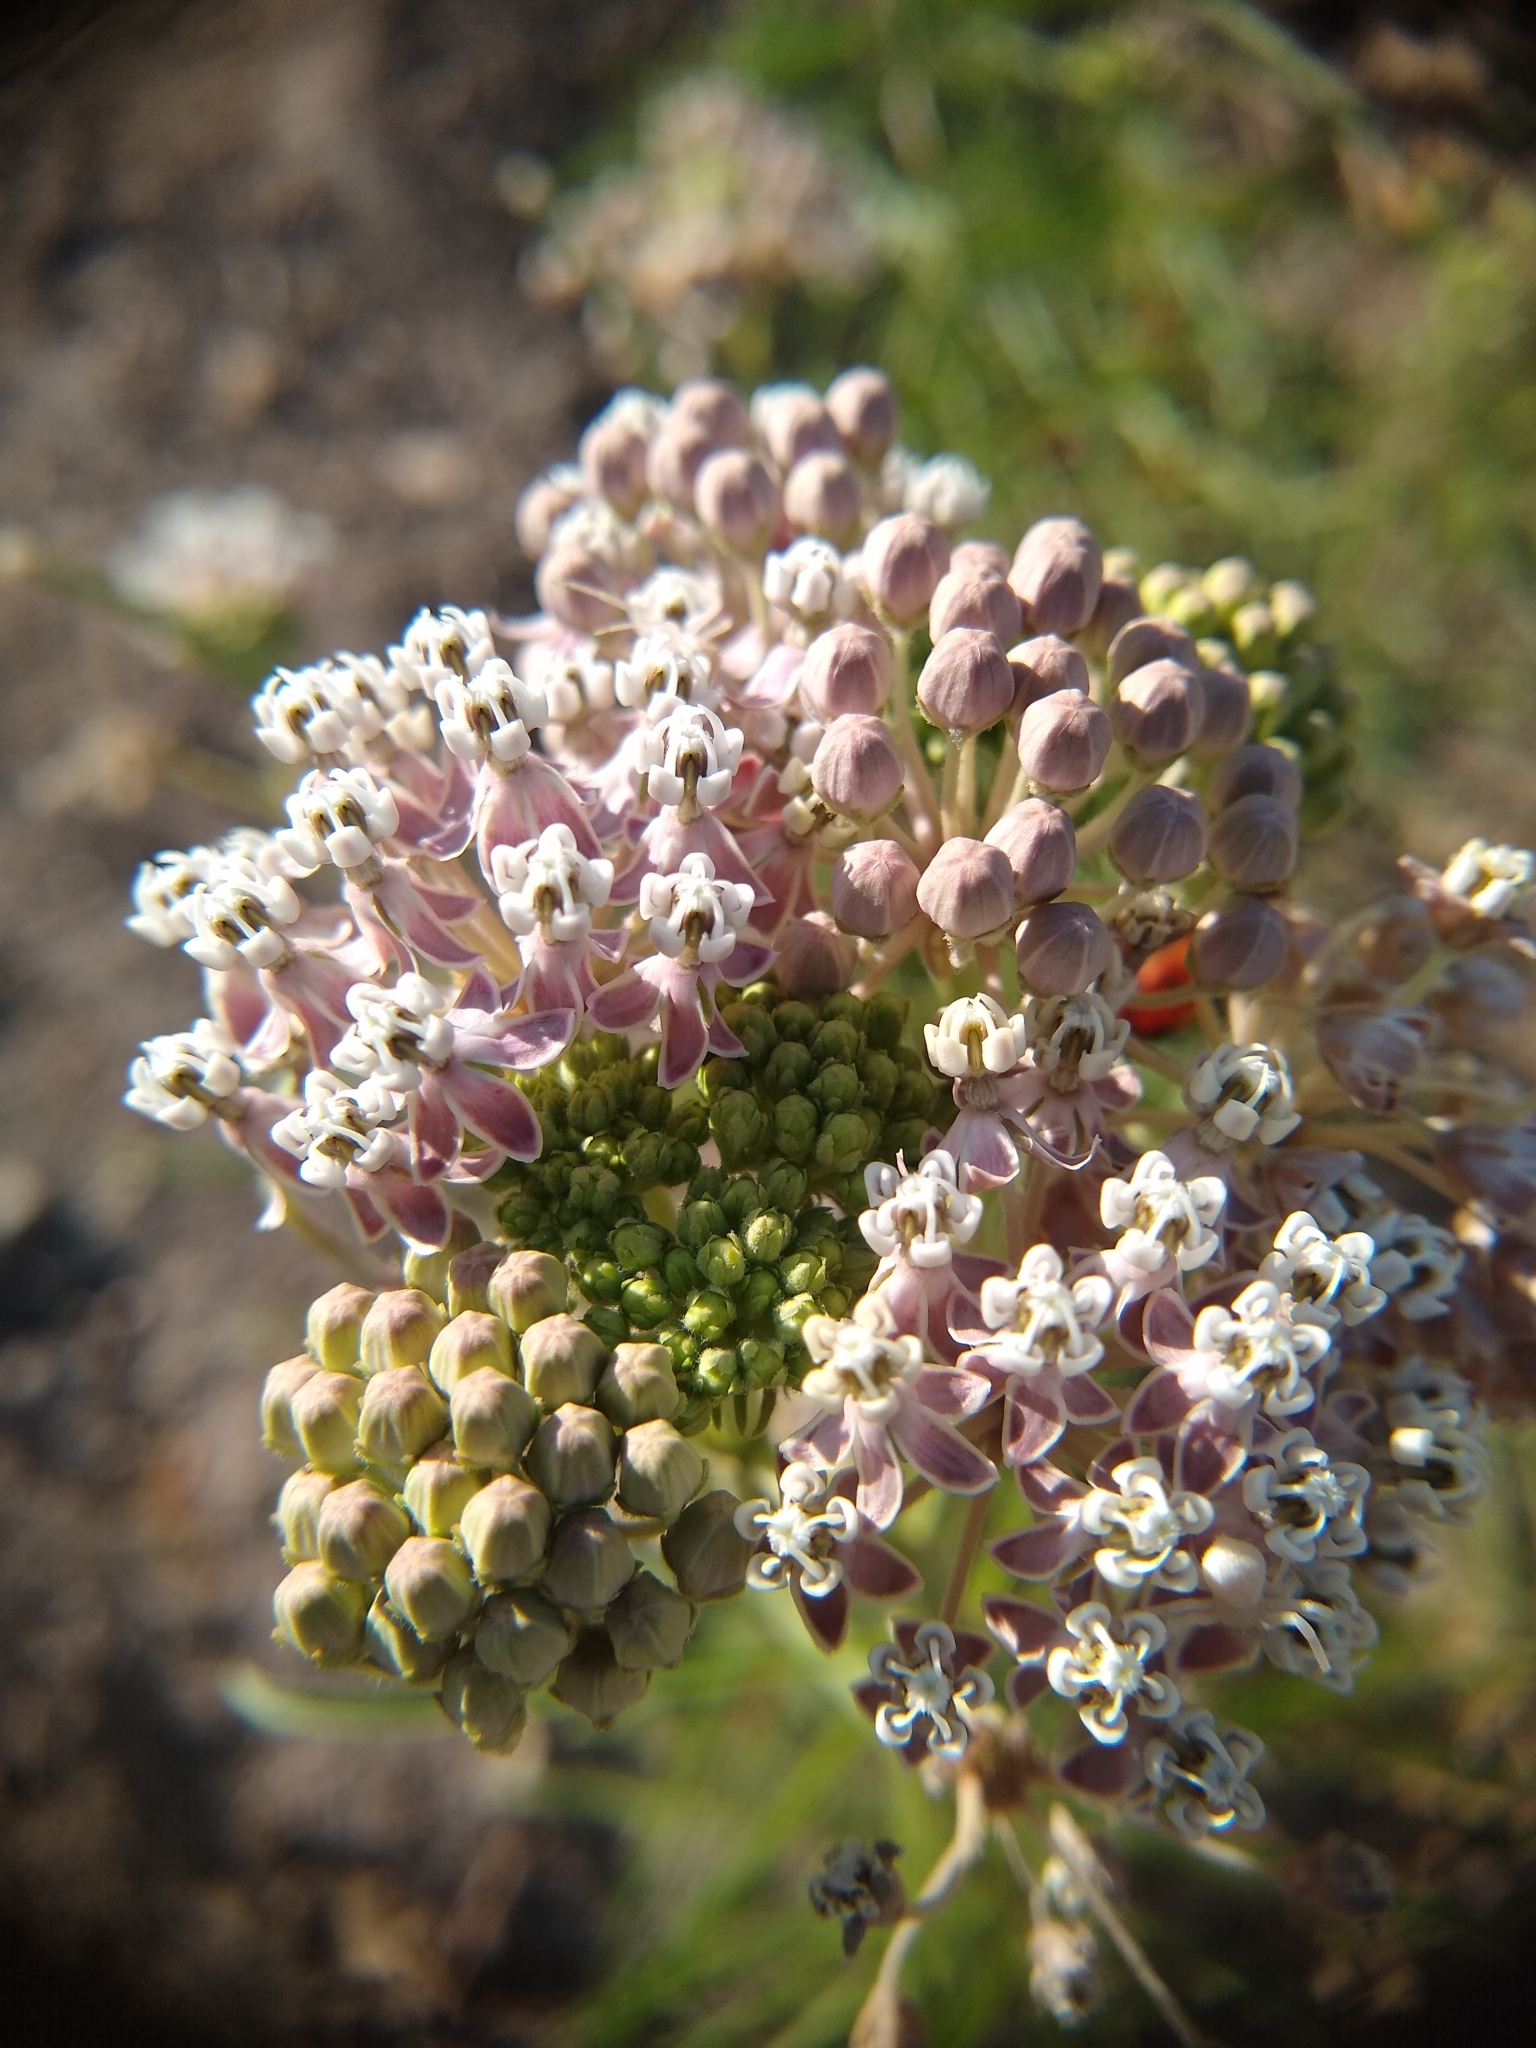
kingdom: Plantae
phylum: Tracheophyta
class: Magnoliopsida
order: Gentianales
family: Apocynaceae
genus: Asclepias
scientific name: Asclepias fascicularis
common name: Mexican milkweed
